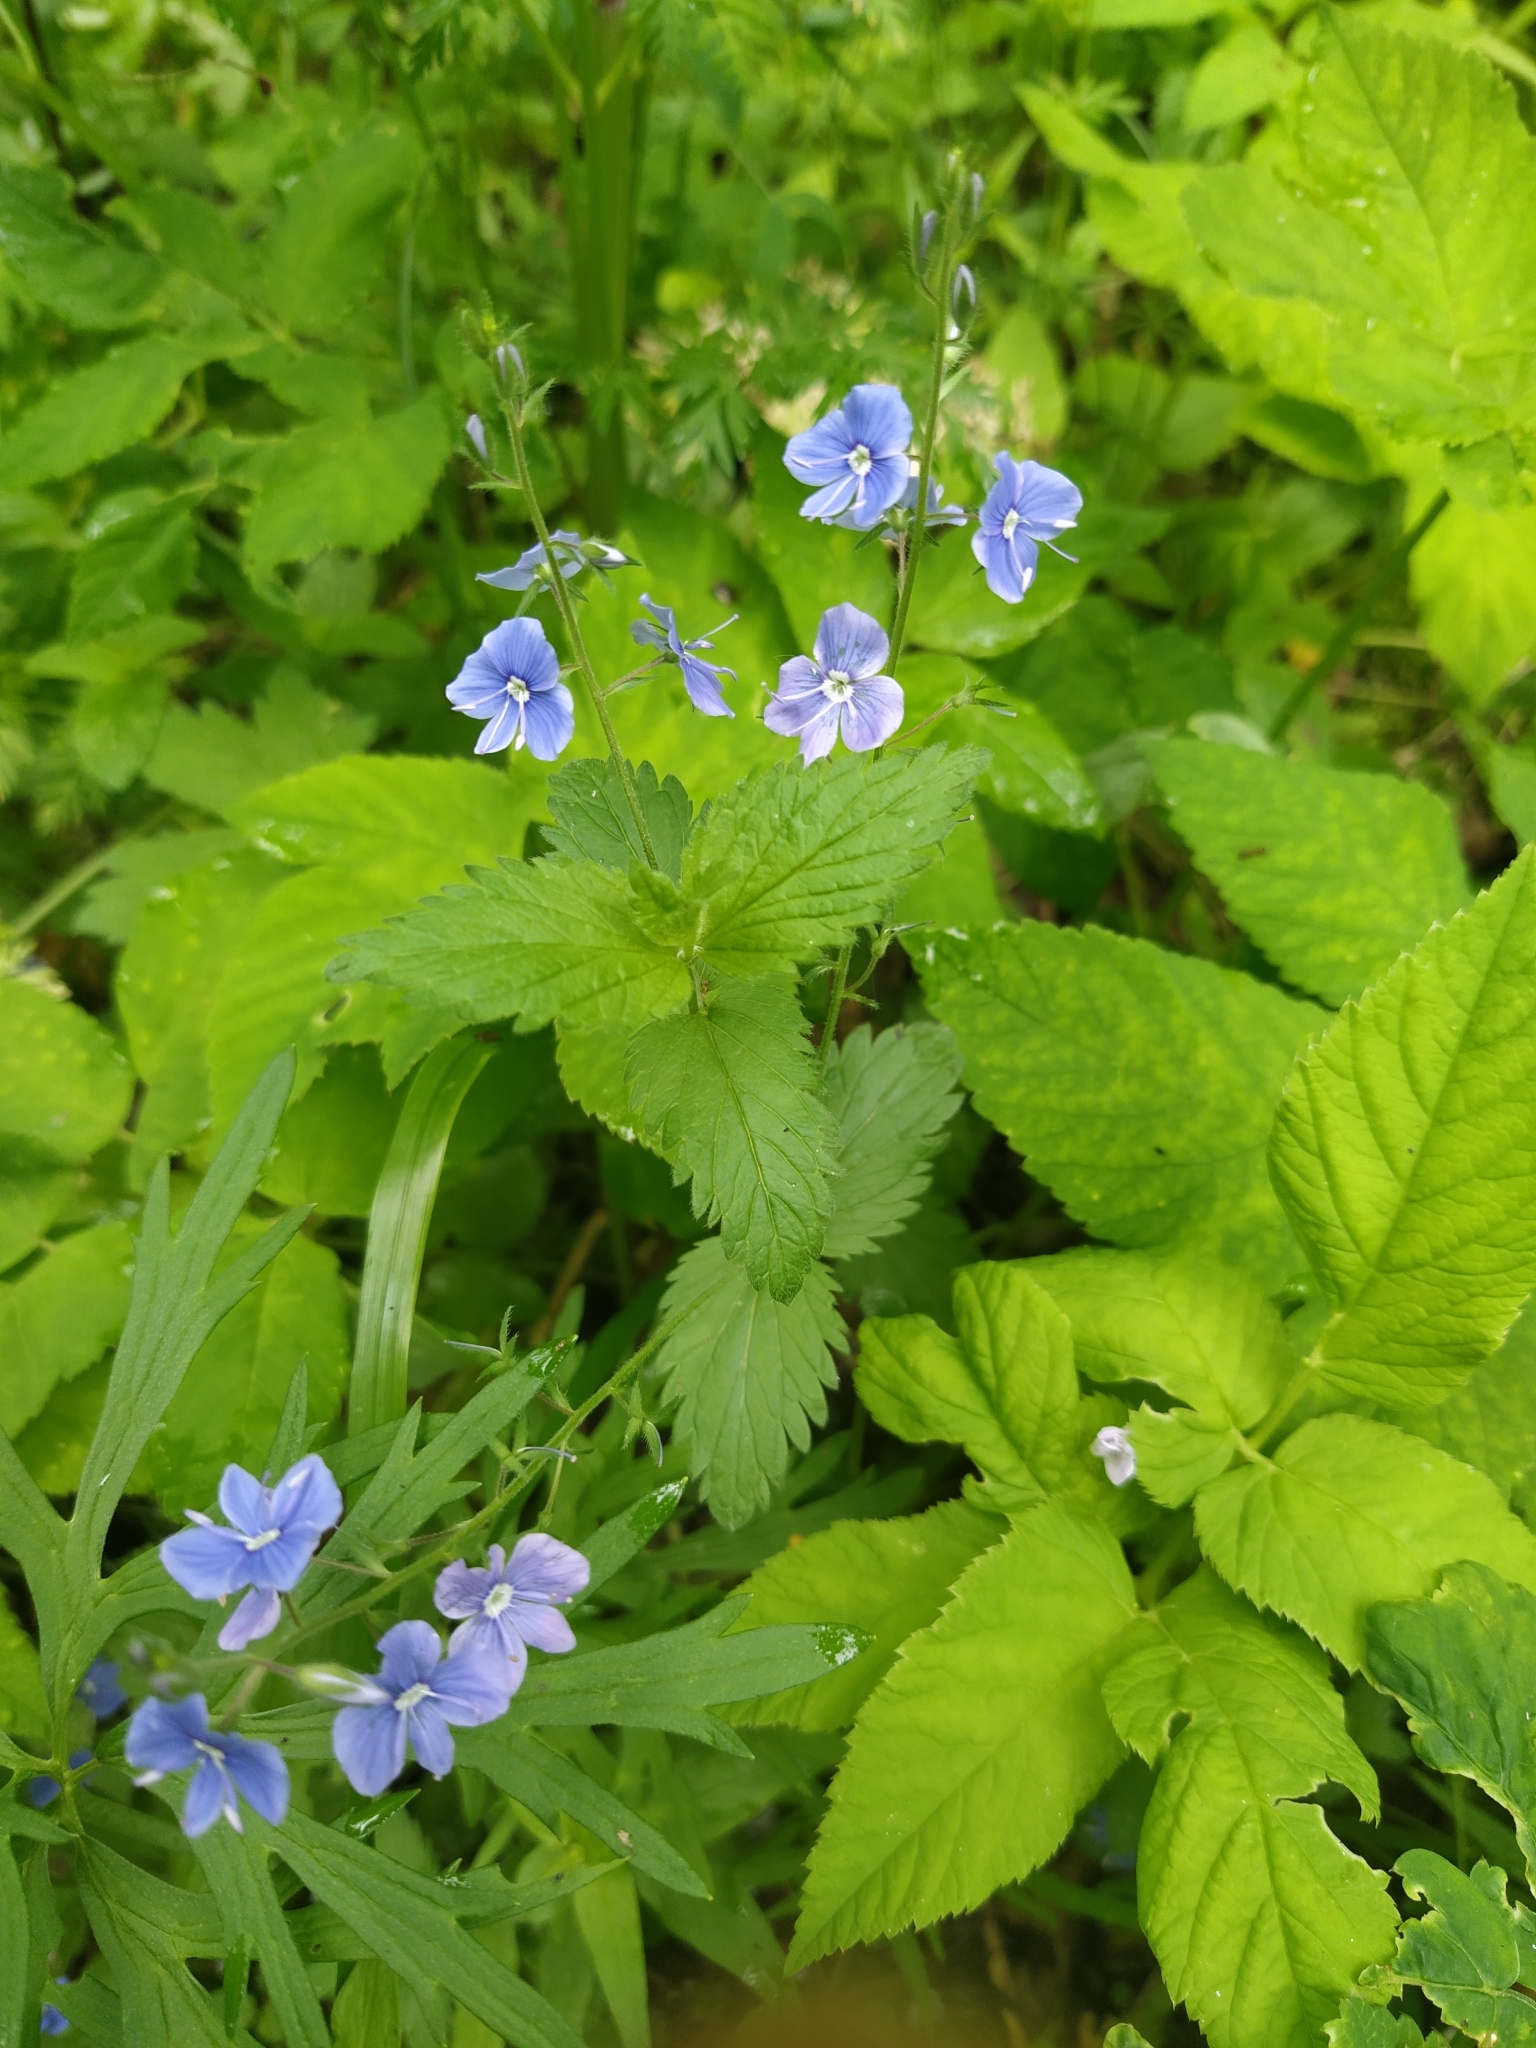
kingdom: Plantae
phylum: Tracheophyta
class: Magnoliopsida
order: Lamiales
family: Plantaginaceae
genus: Veronica
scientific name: Veronica chamaedrys
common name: Germander speedwell
